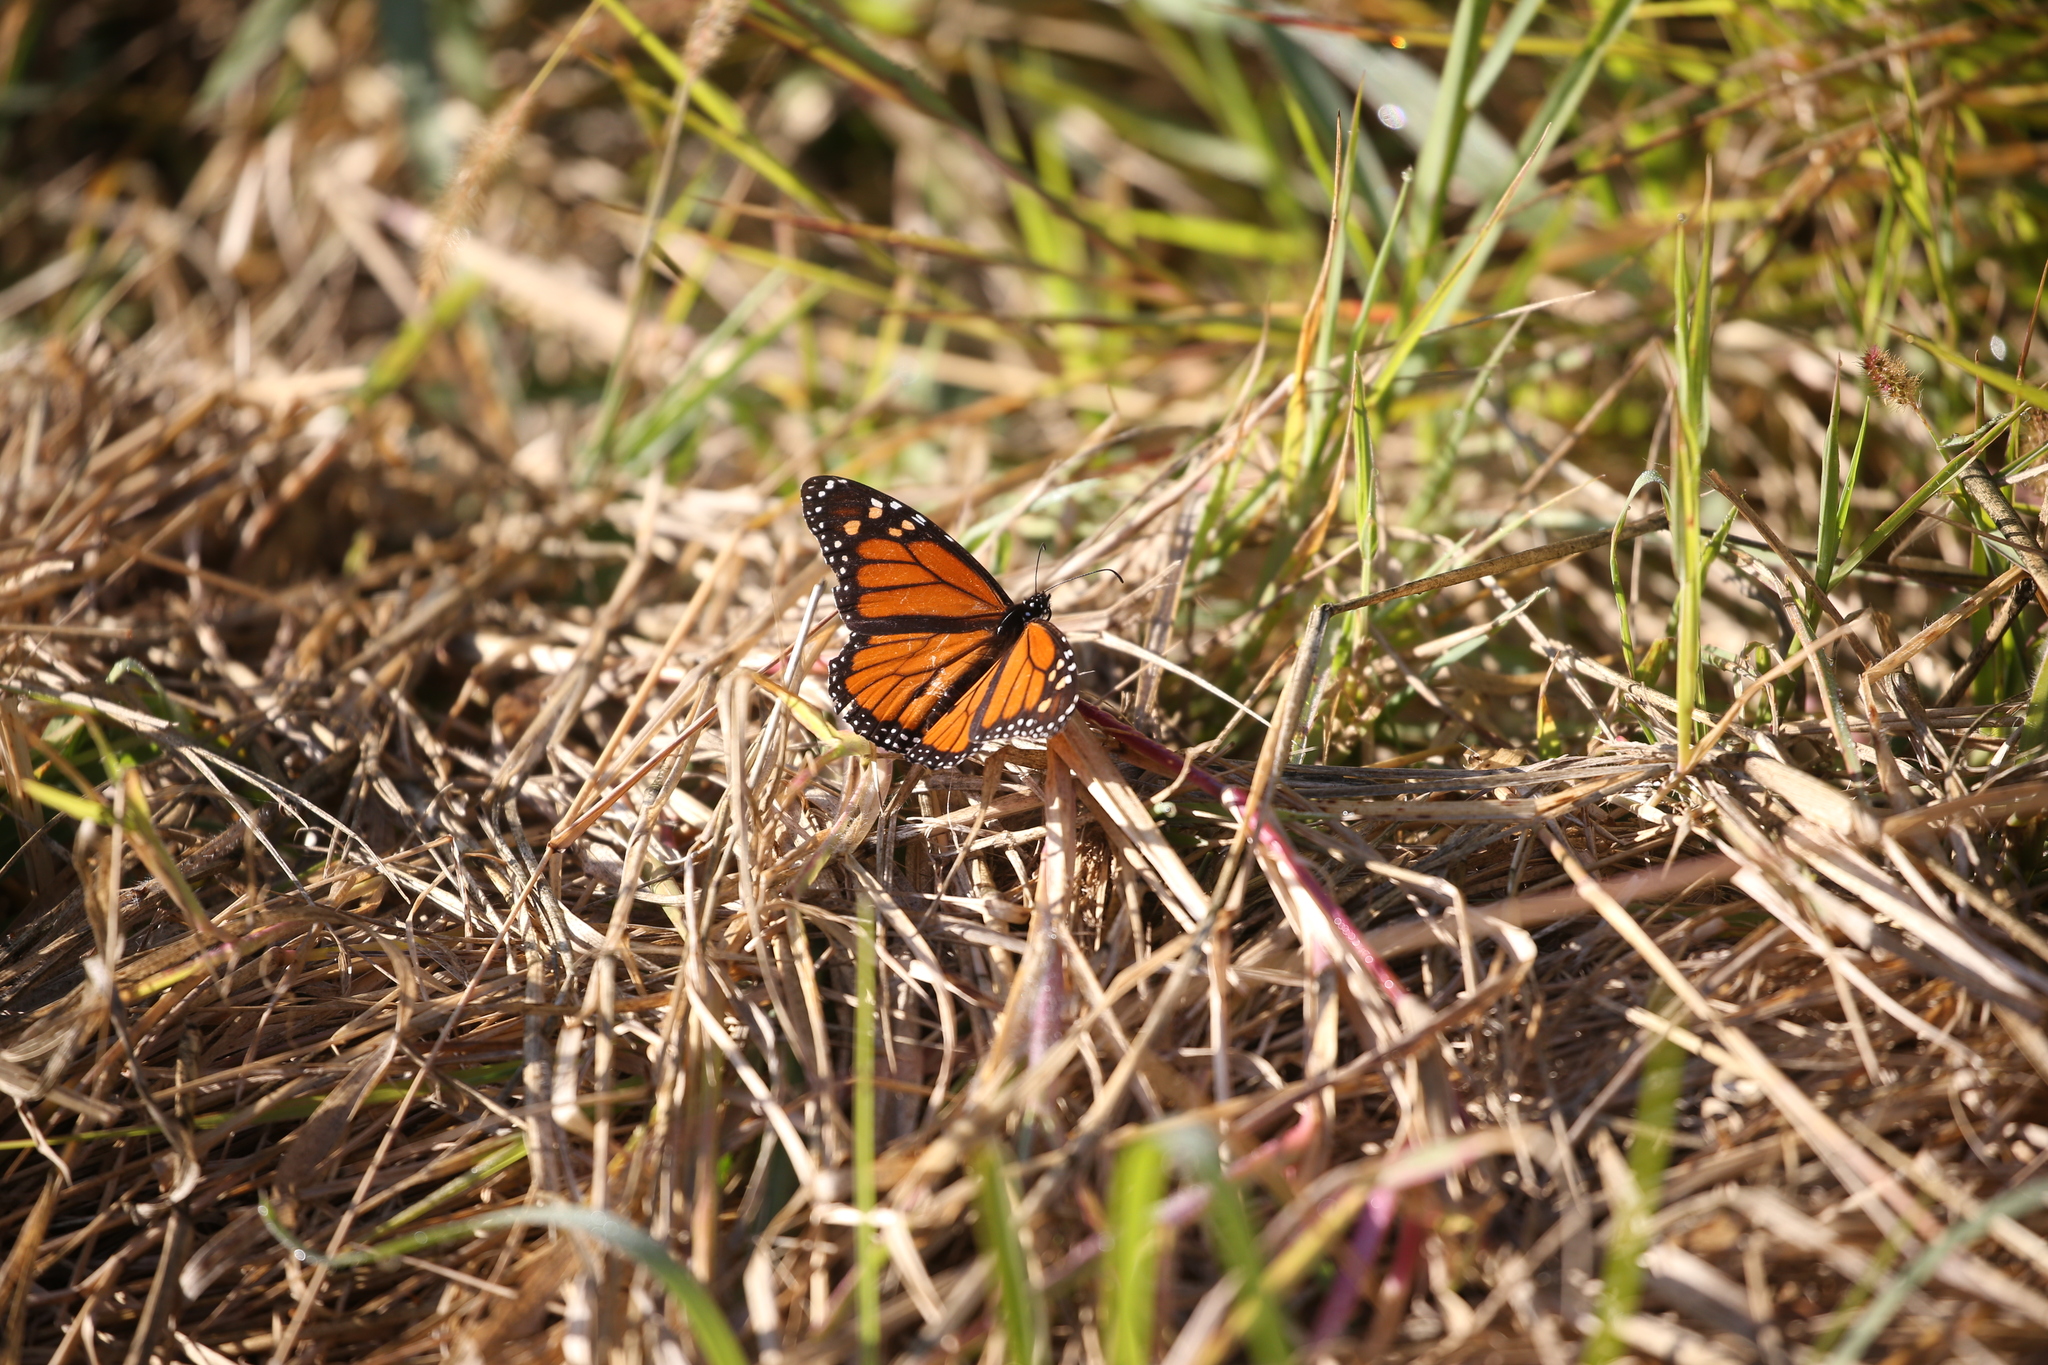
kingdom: Animalia
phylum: Arthropoda
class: Insecta
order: Lepidoptera
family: Nymphalidae
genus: Danaus
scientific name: Danaus plexippus
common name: Monarch
